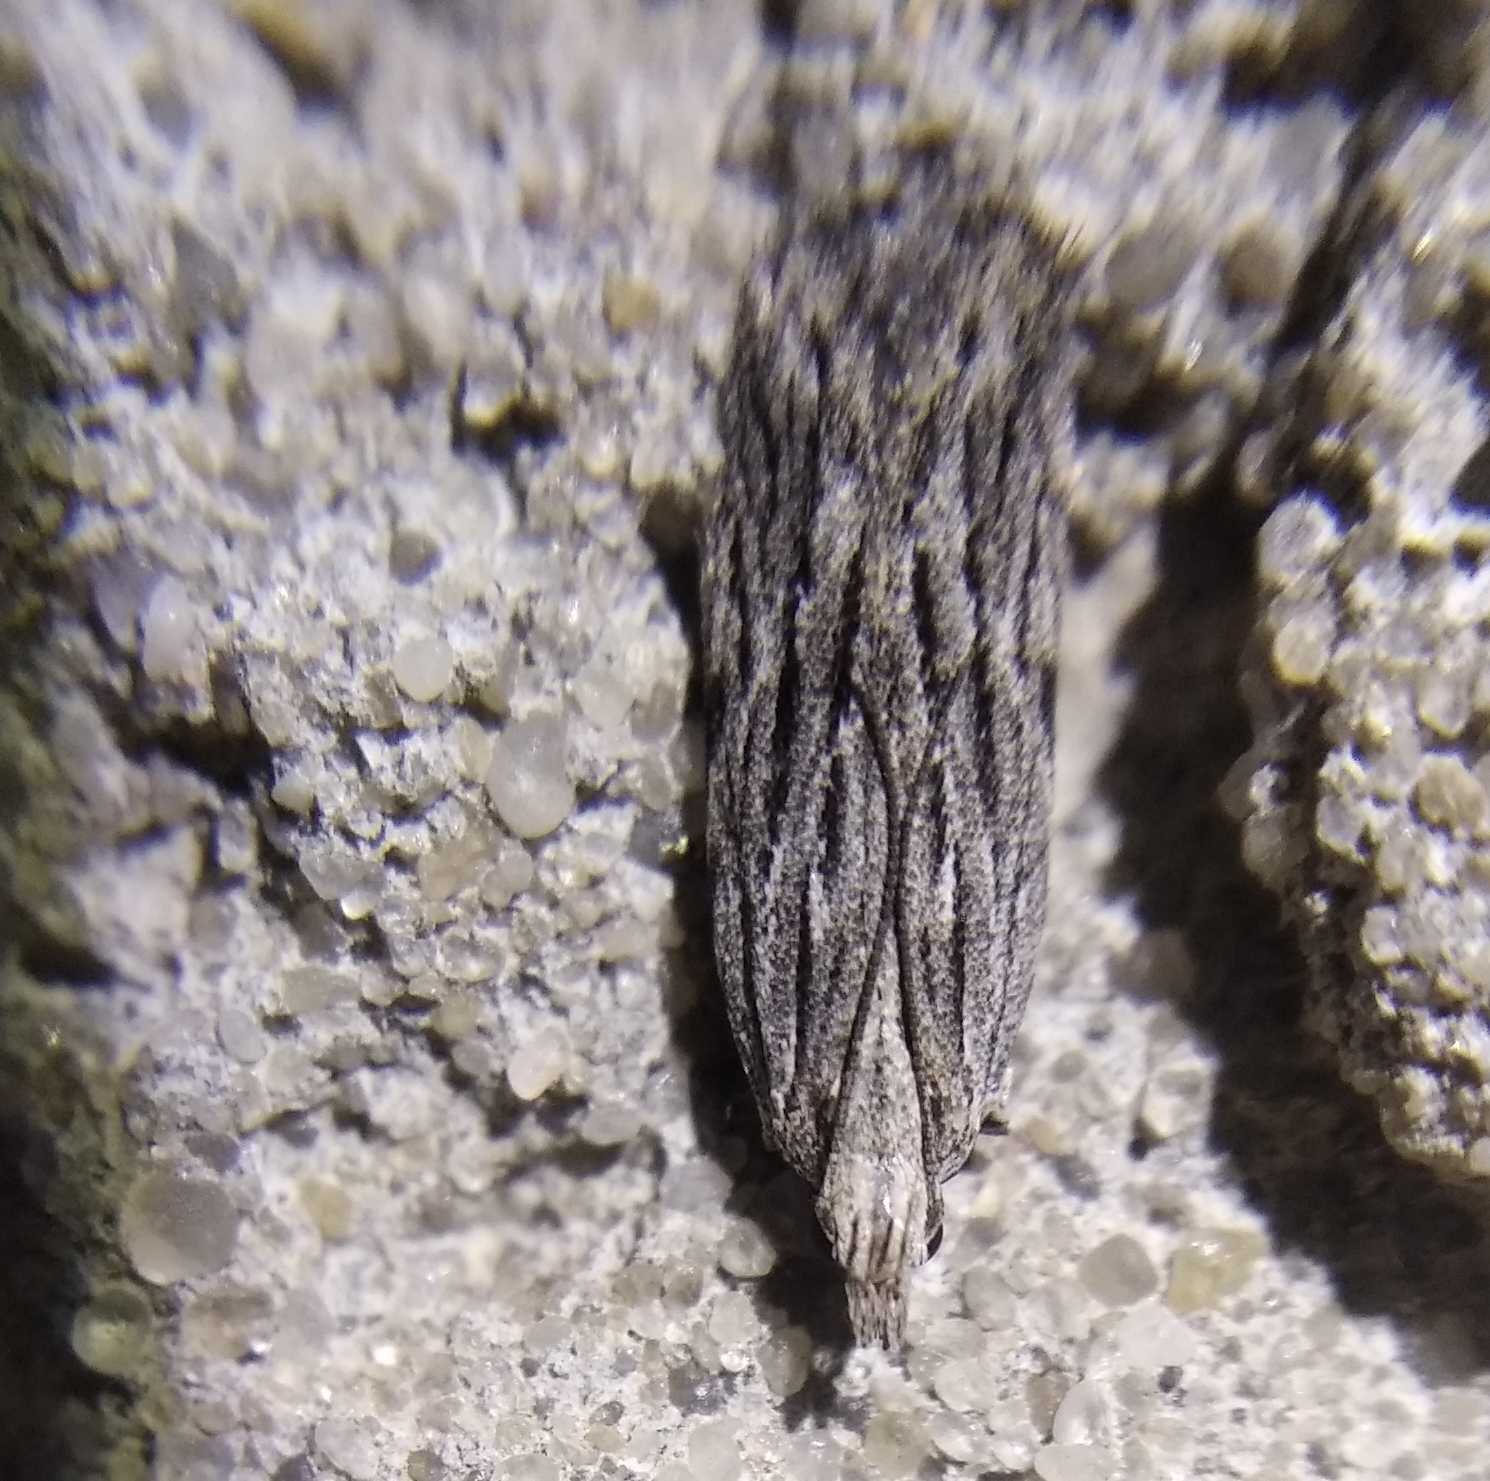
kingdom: Animalia
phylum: Arthropoda
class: Insecta
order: Lepidoptera
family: Gelechiidae
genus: Anarsia
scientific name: Anarsia innoxiella
